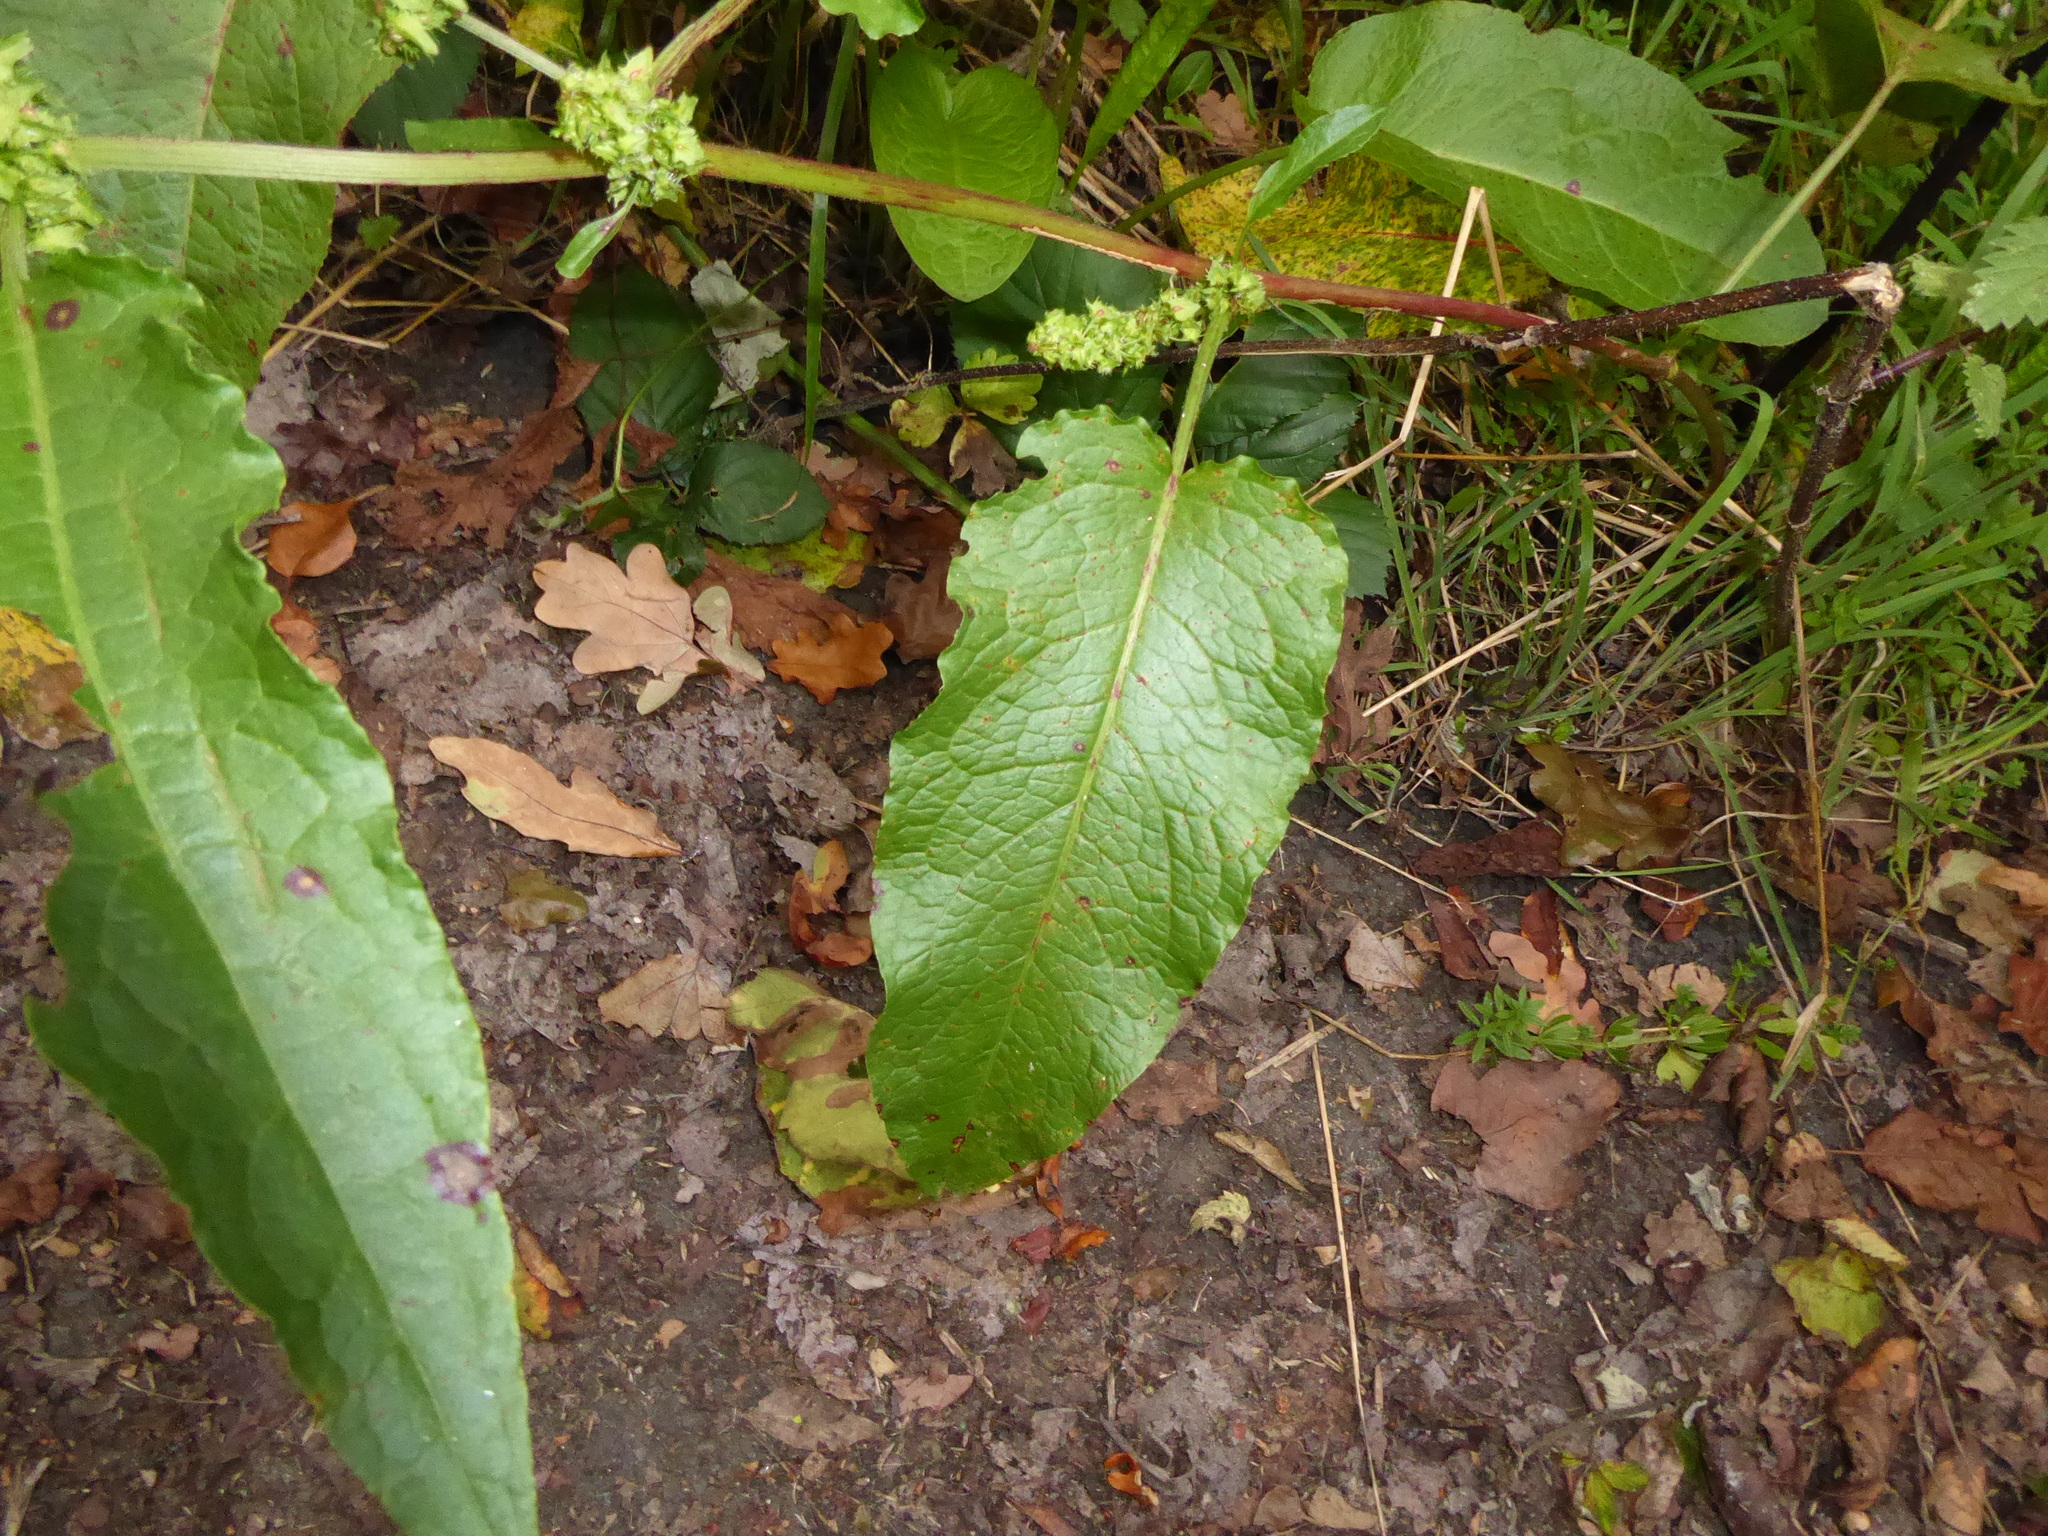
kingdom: Plantae
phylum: Tracheophyta
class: Magnoliopsida
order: Caryophyllales
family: Polygonaceae
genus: Rumex
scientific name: Rumex obtusifolius
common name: Bitter dock
